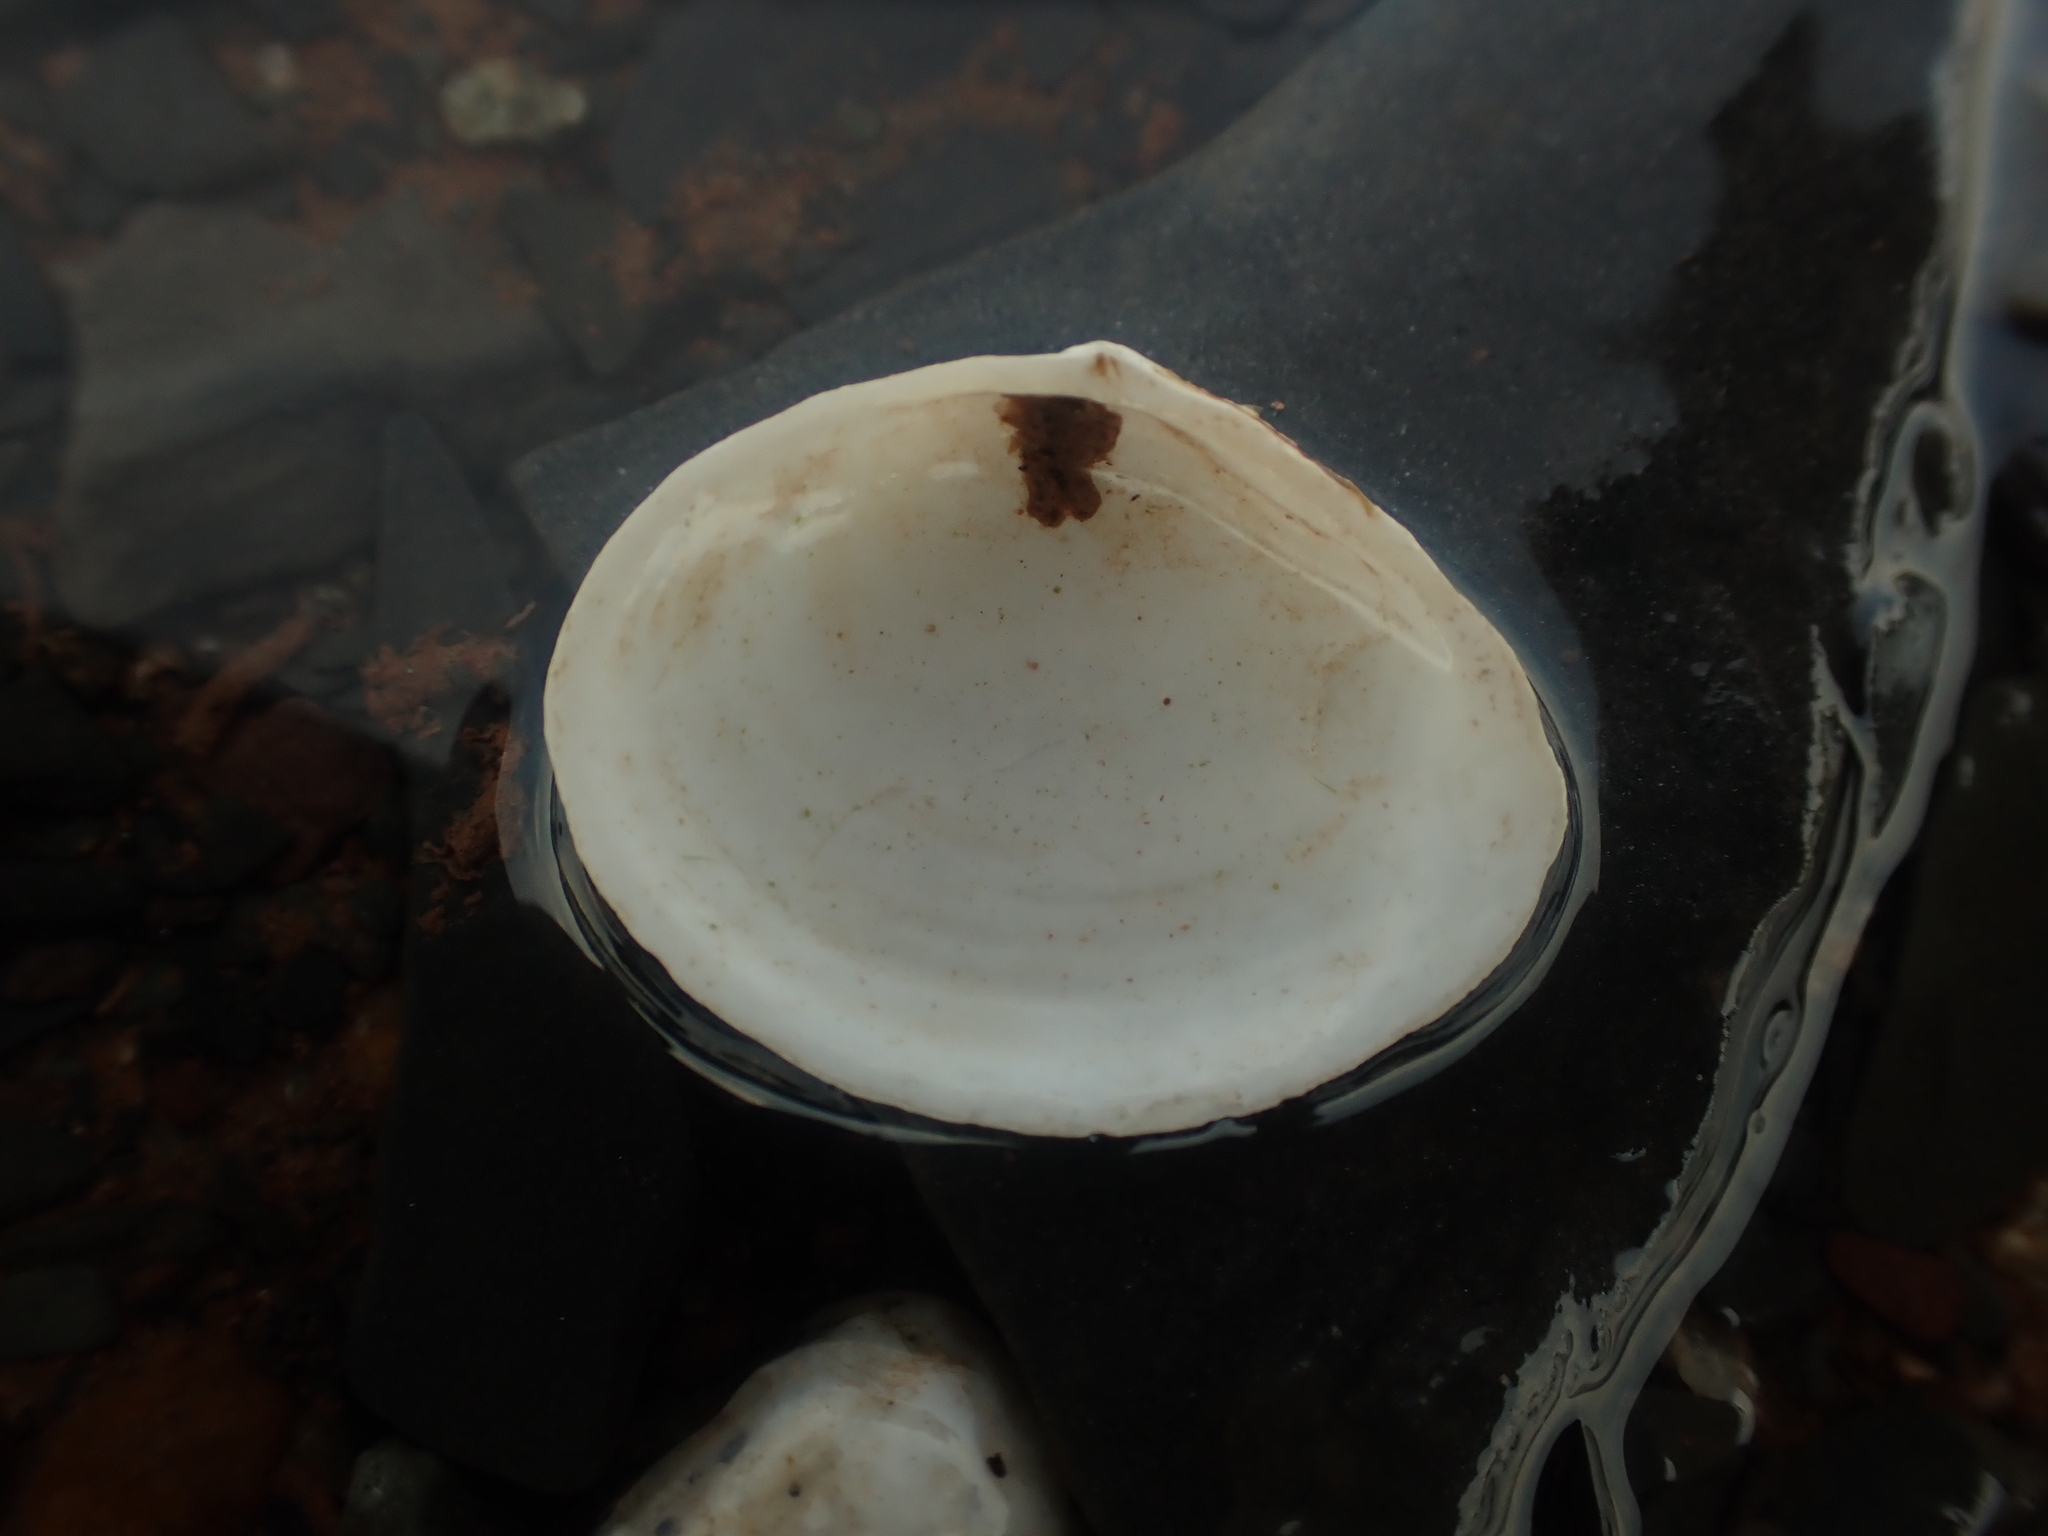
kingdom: Animalia
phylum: Mollusca
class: Bivalvia
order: Cardiida
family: Tellinidae
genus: Macoma
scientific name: Macoma petalum
